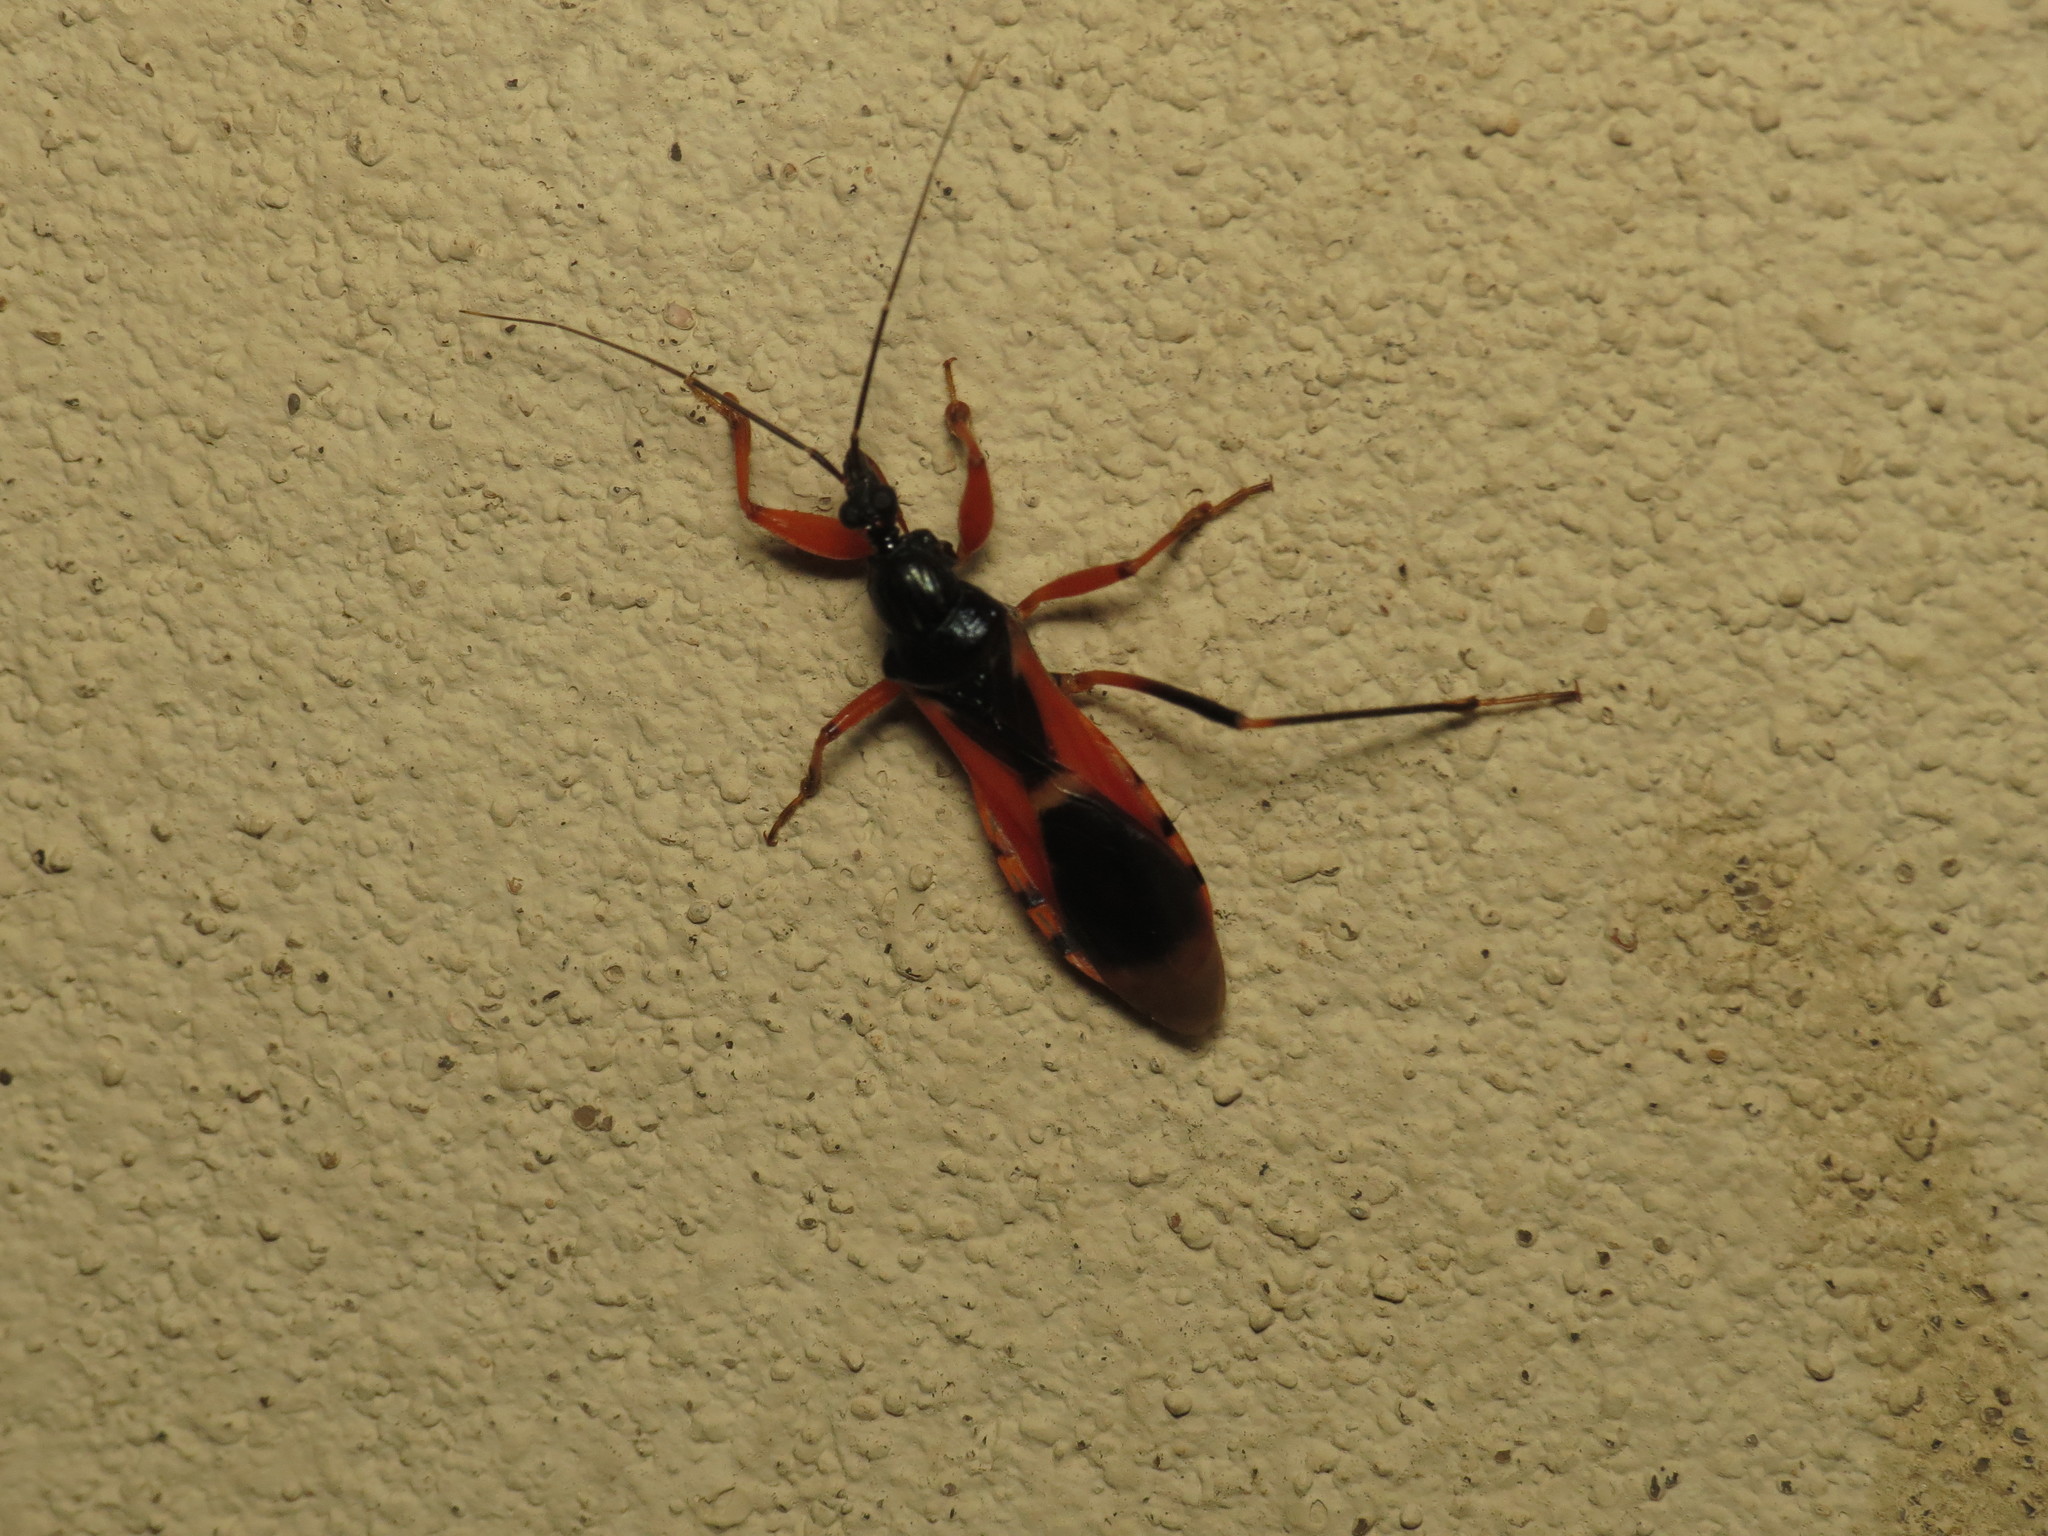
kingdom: Animalia
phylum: Arthropoda
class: Insecta
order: Hemiptera
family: Reduviidae
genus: Ectomocoris
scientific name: Ectomocoris ornatus
